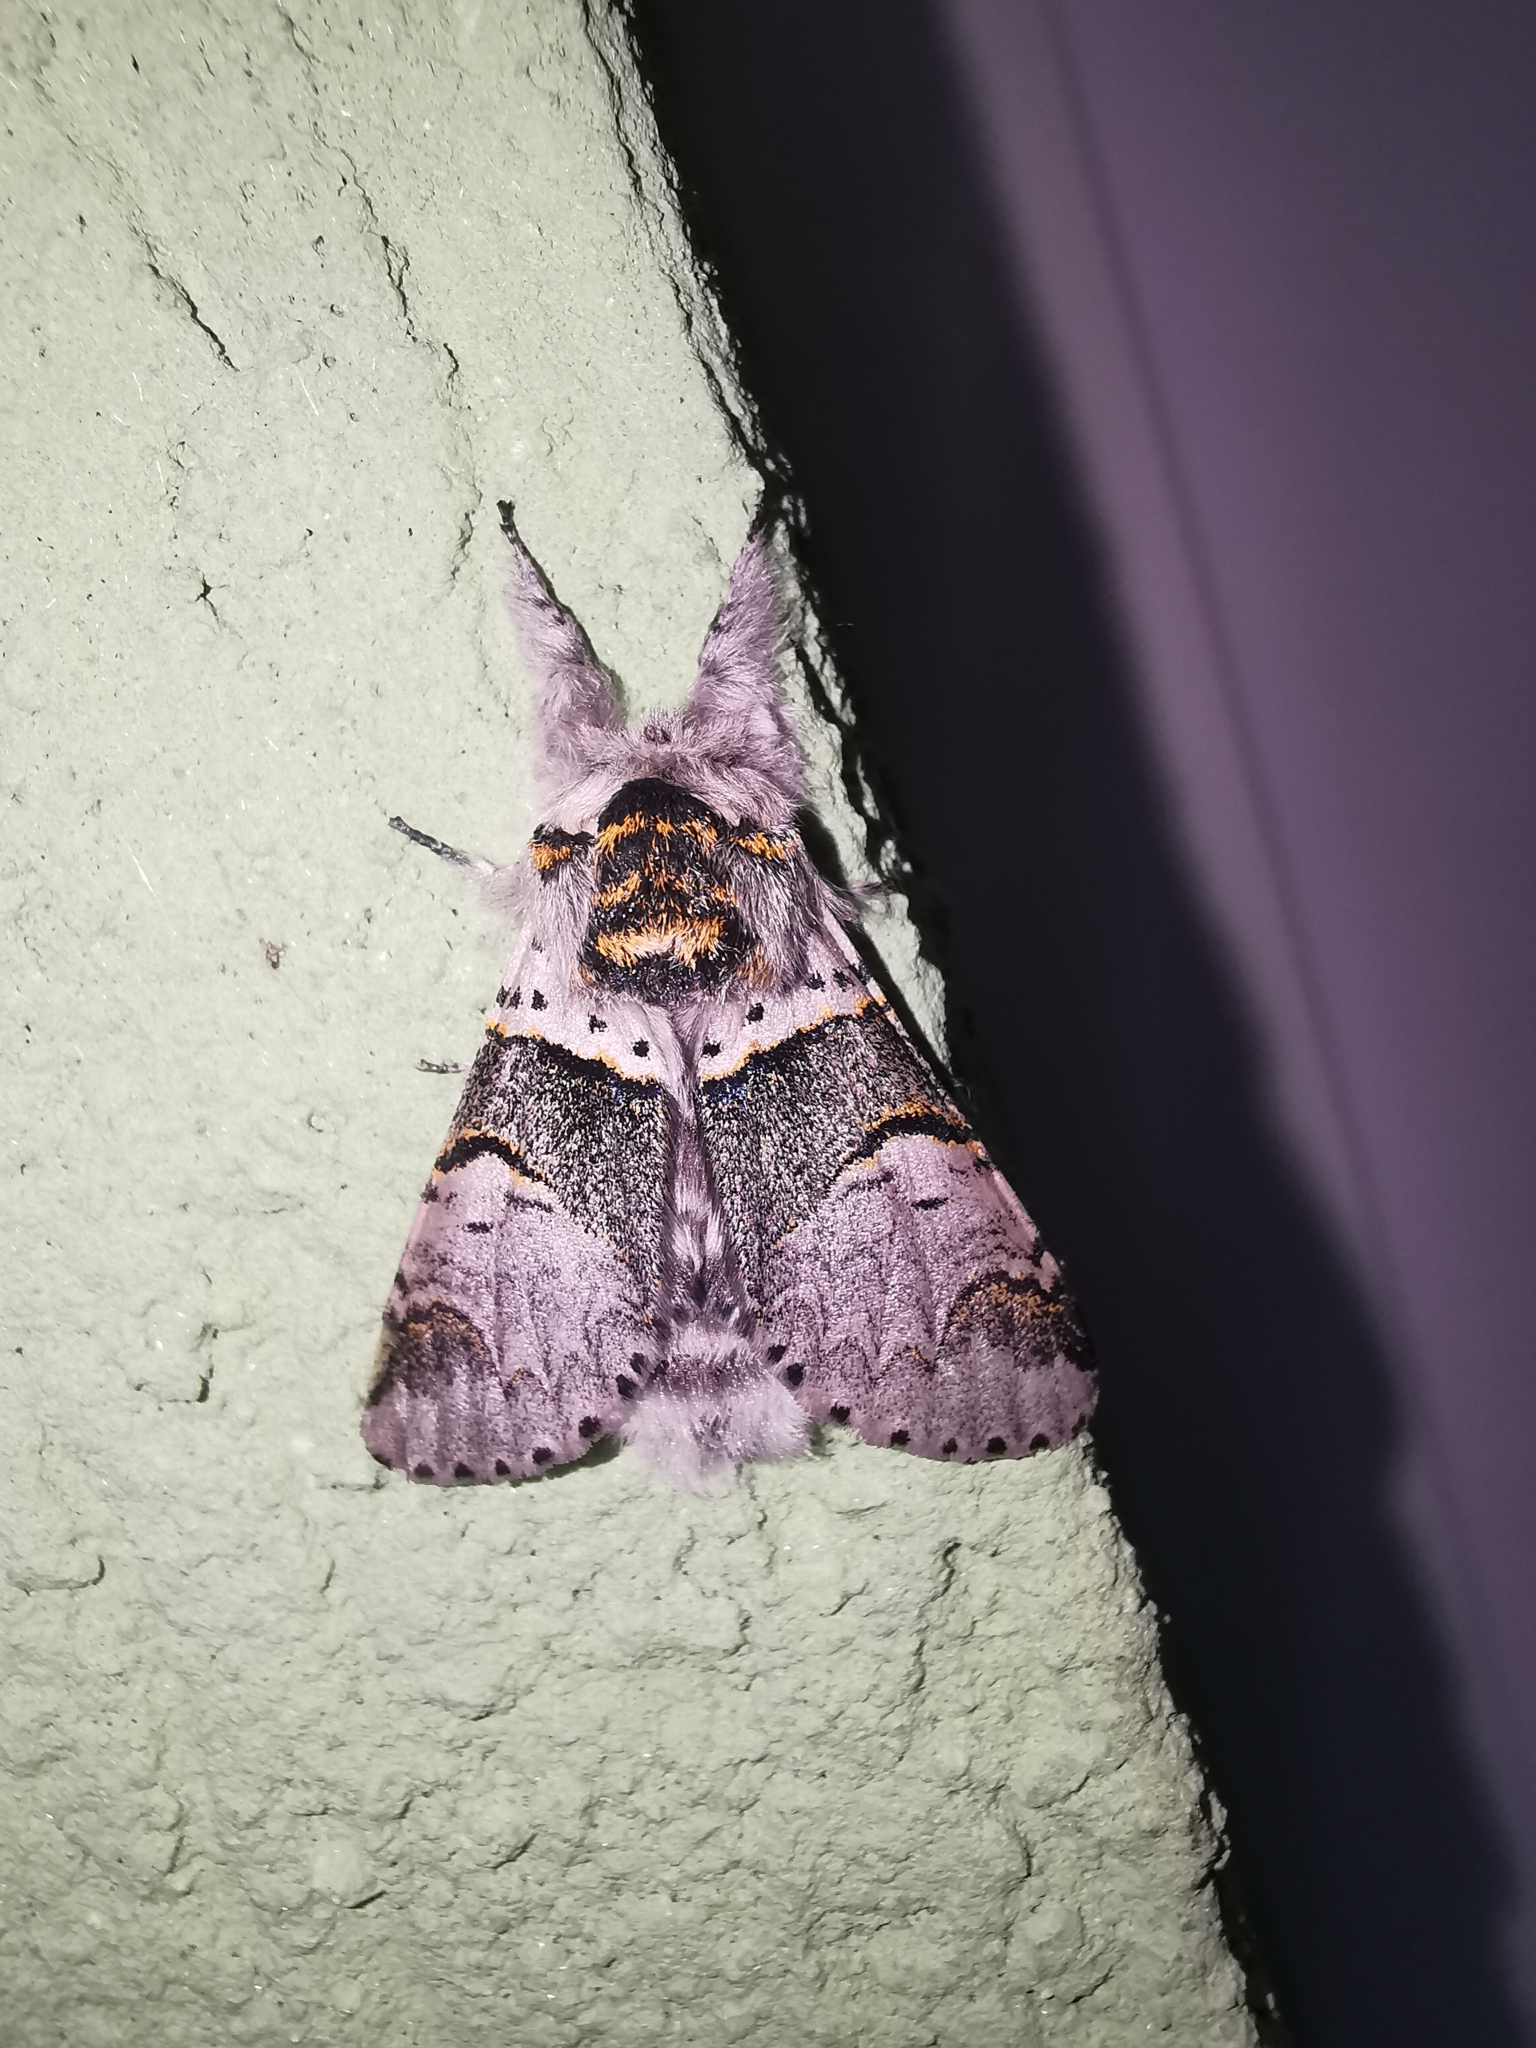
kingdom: Animalia
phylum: Arthropoda
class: Insecta
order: Lepidoptera
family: Notodontidae
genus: Furcula
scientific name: Furcula bifida
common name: Poplar kitten
